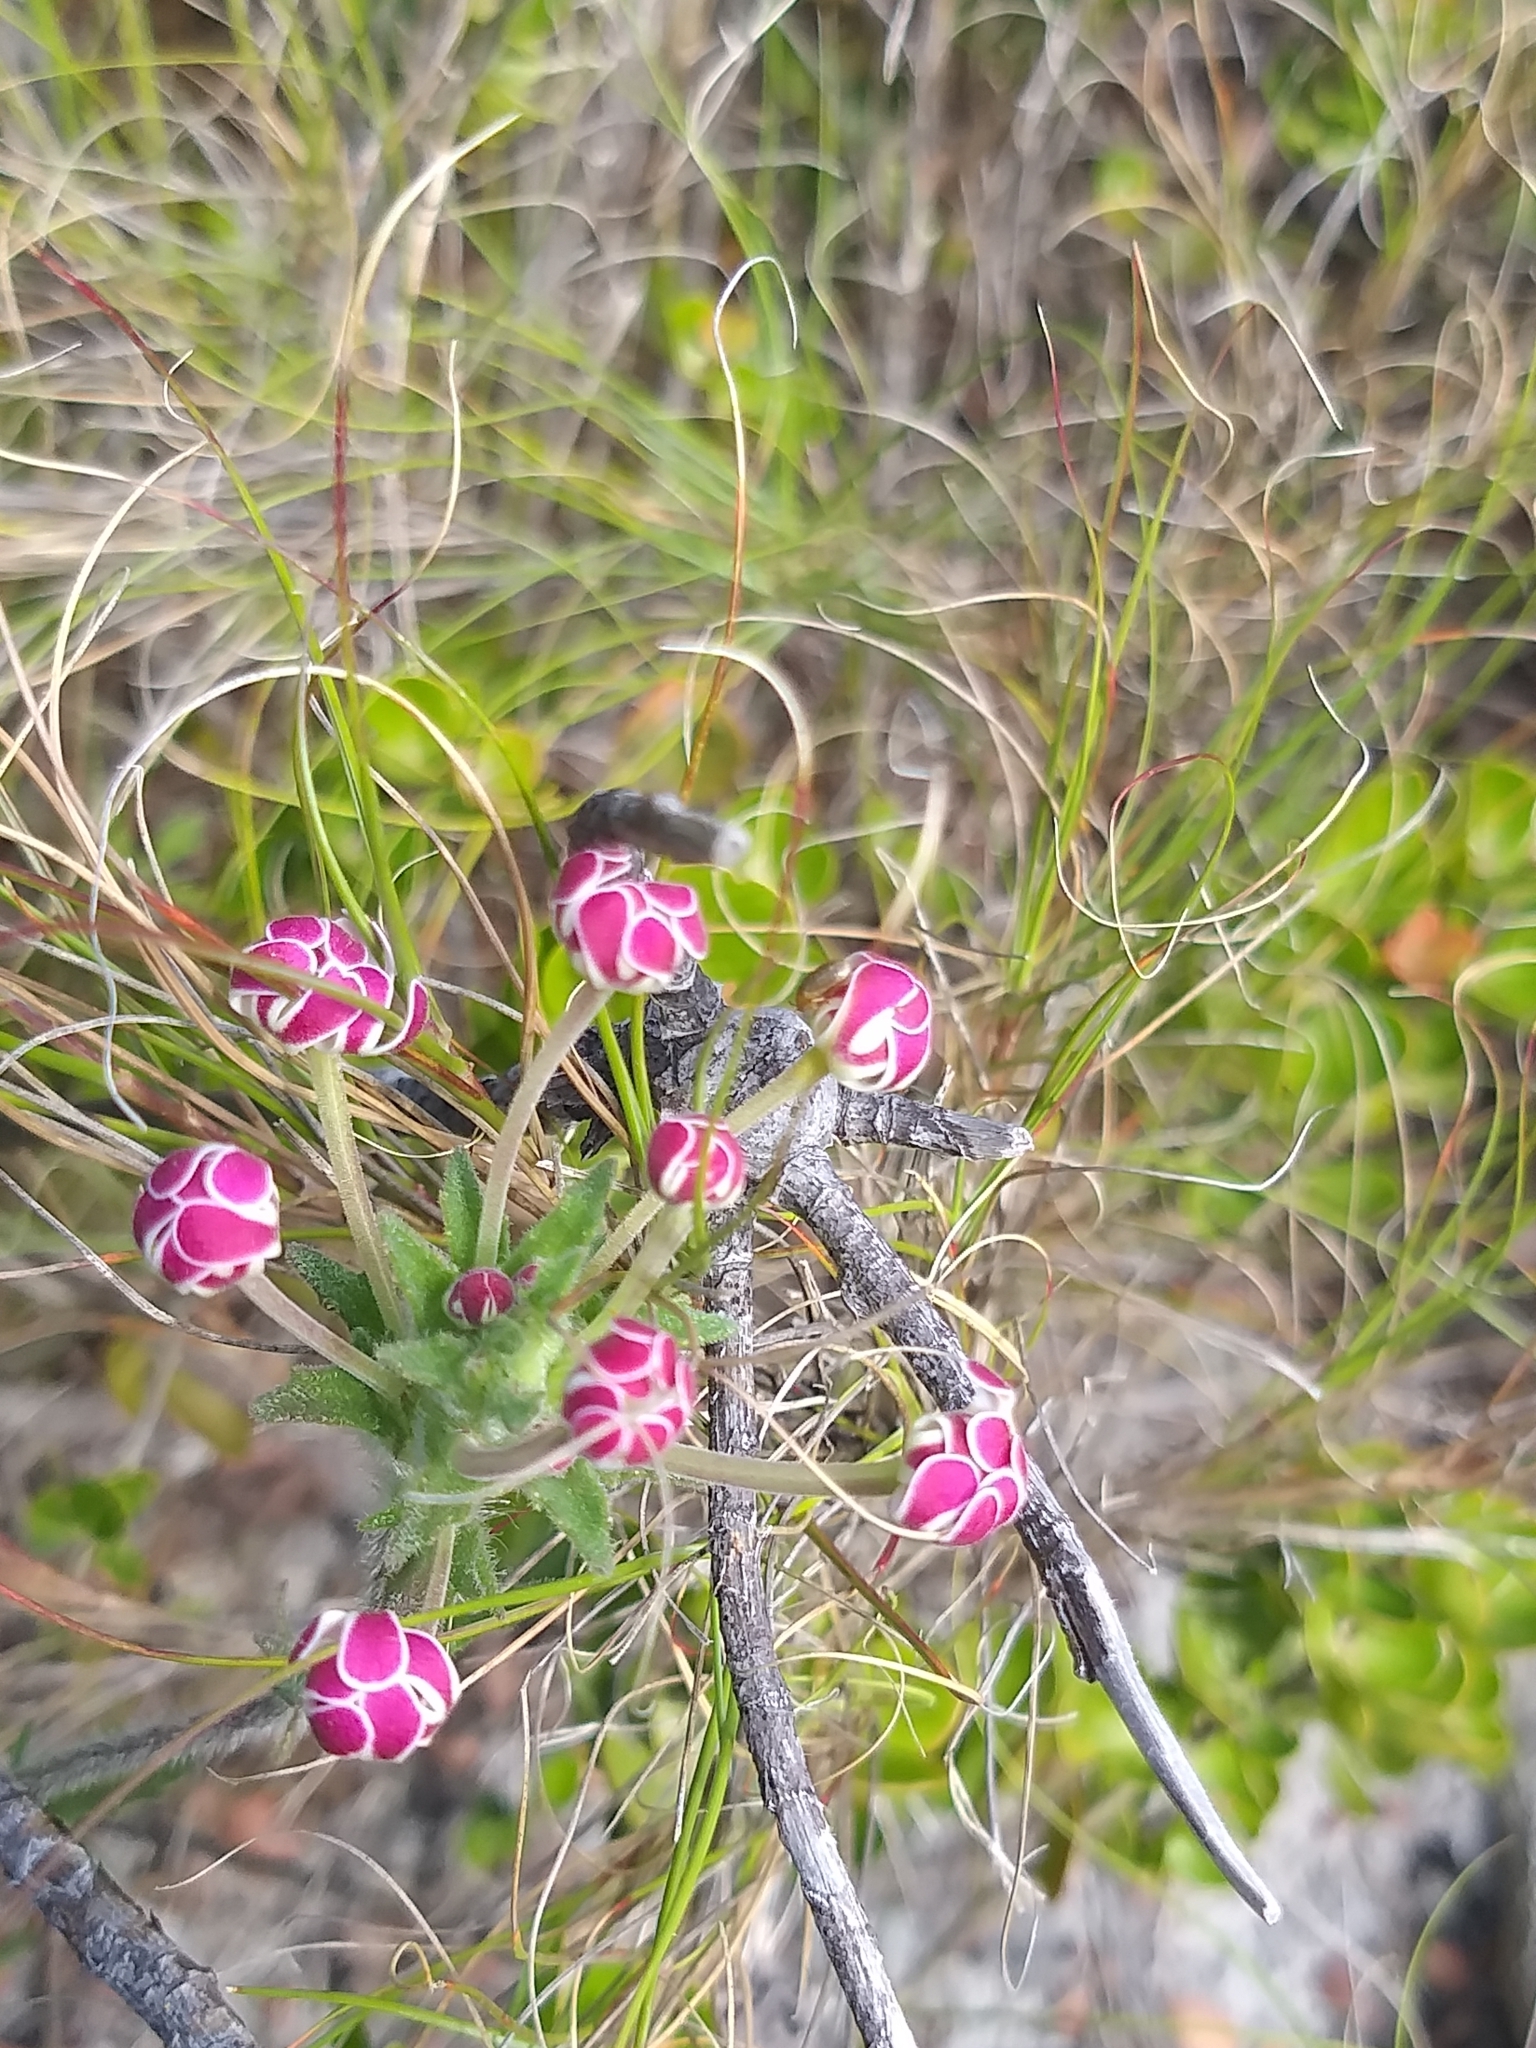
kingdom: Plantae
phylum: Tracheophyta
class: Magnoliopsida
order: Lamiales
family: Scrophulariaceae
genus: Zaluzianskya
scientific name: Zaluzianskya capensis
